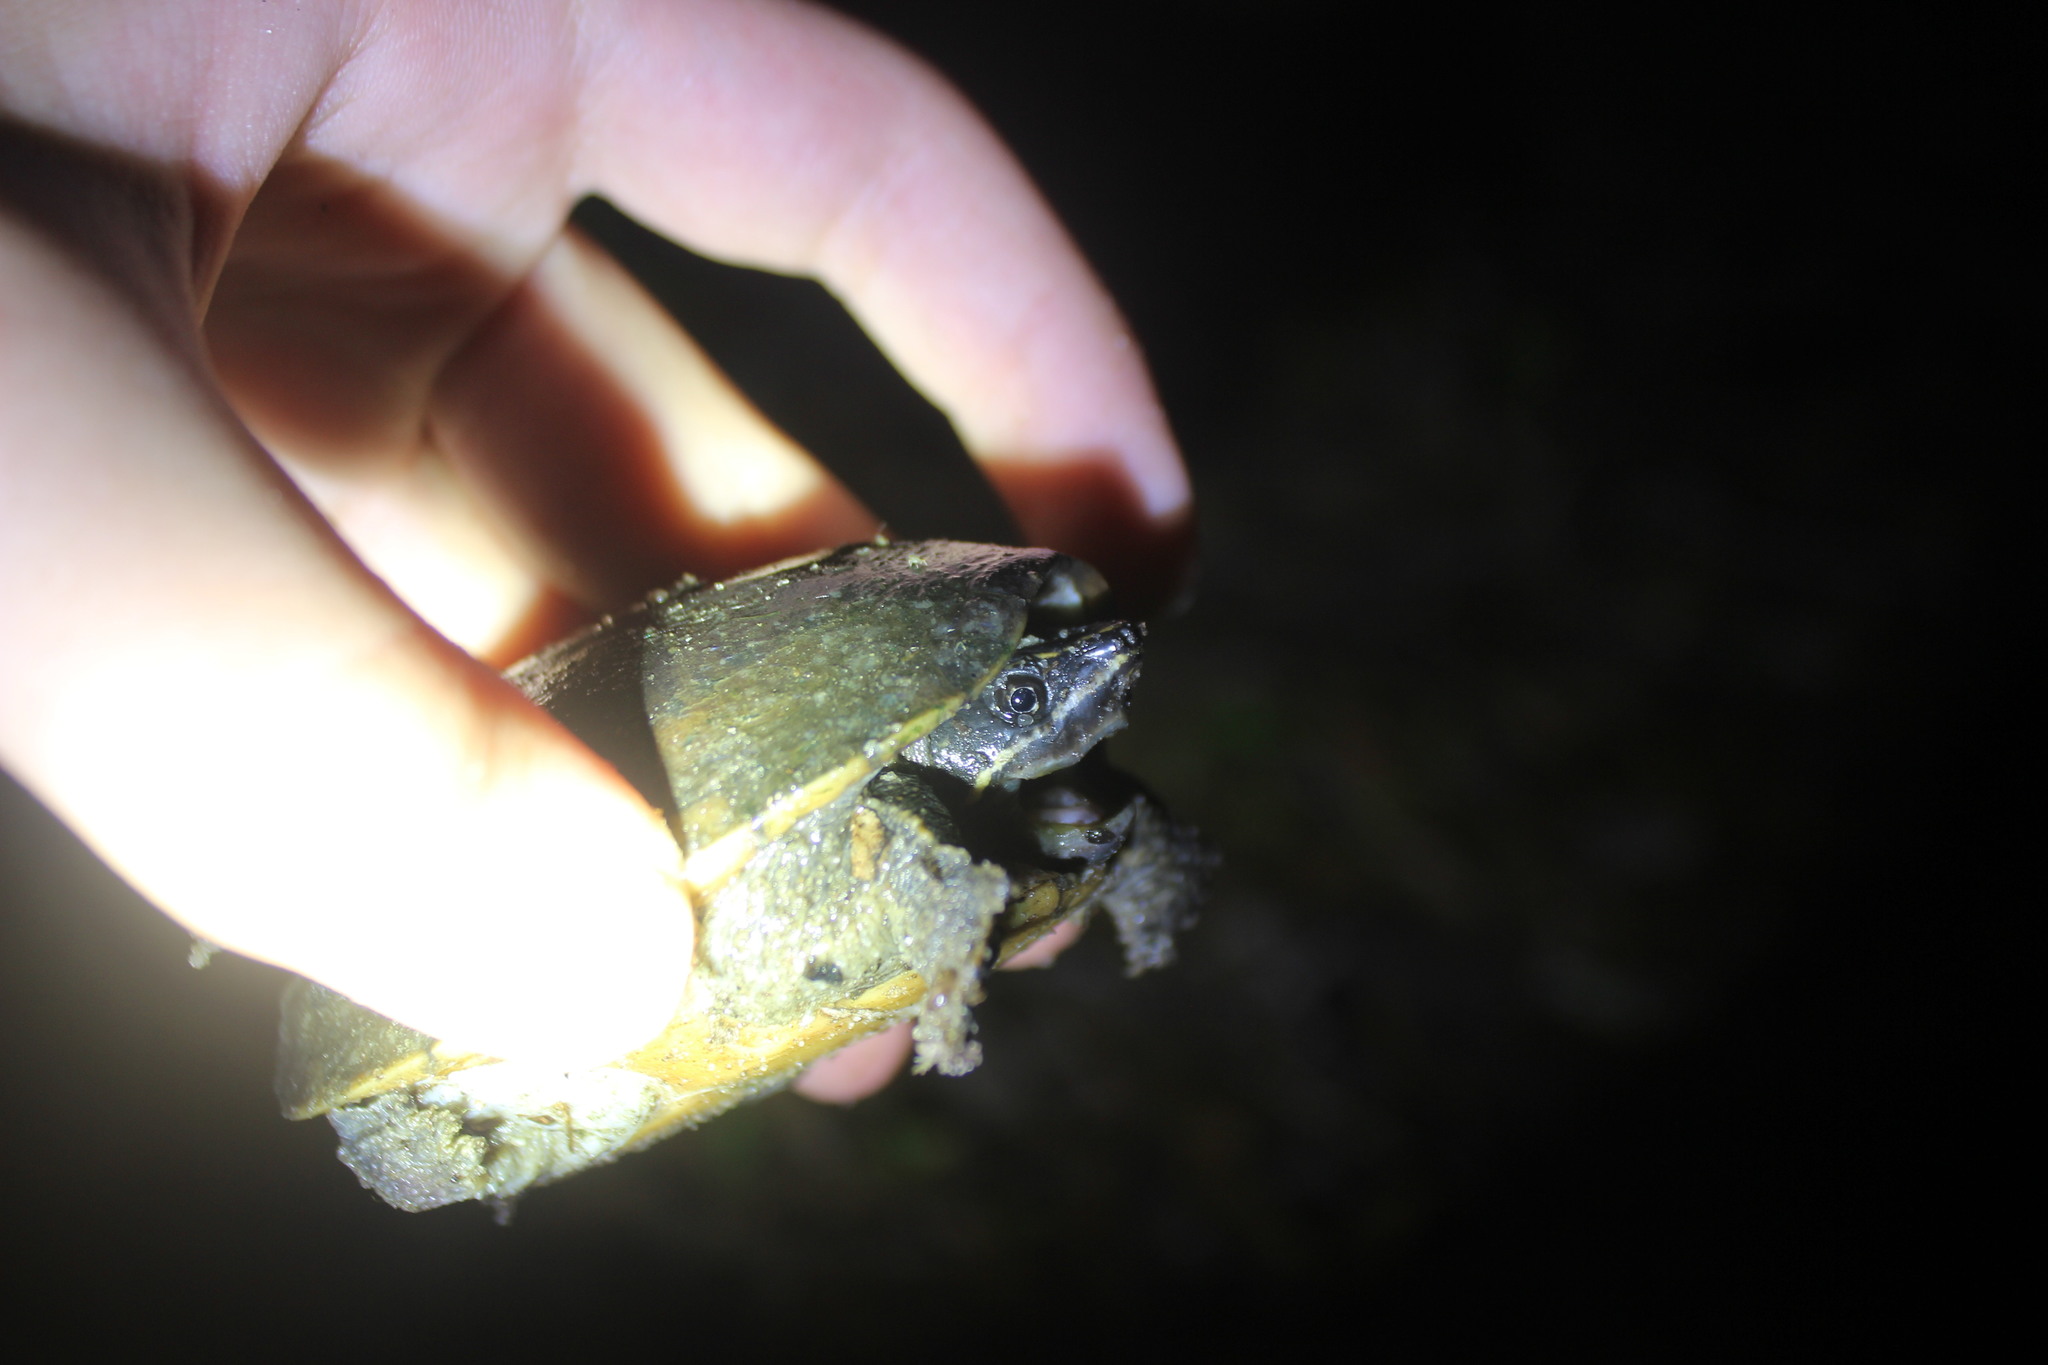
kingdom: Animalia
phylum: Chordata
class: Testudines
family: Kinosternidae
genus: Sternotherus
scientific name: Sternotherus odoratus
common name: Common musk turtle
